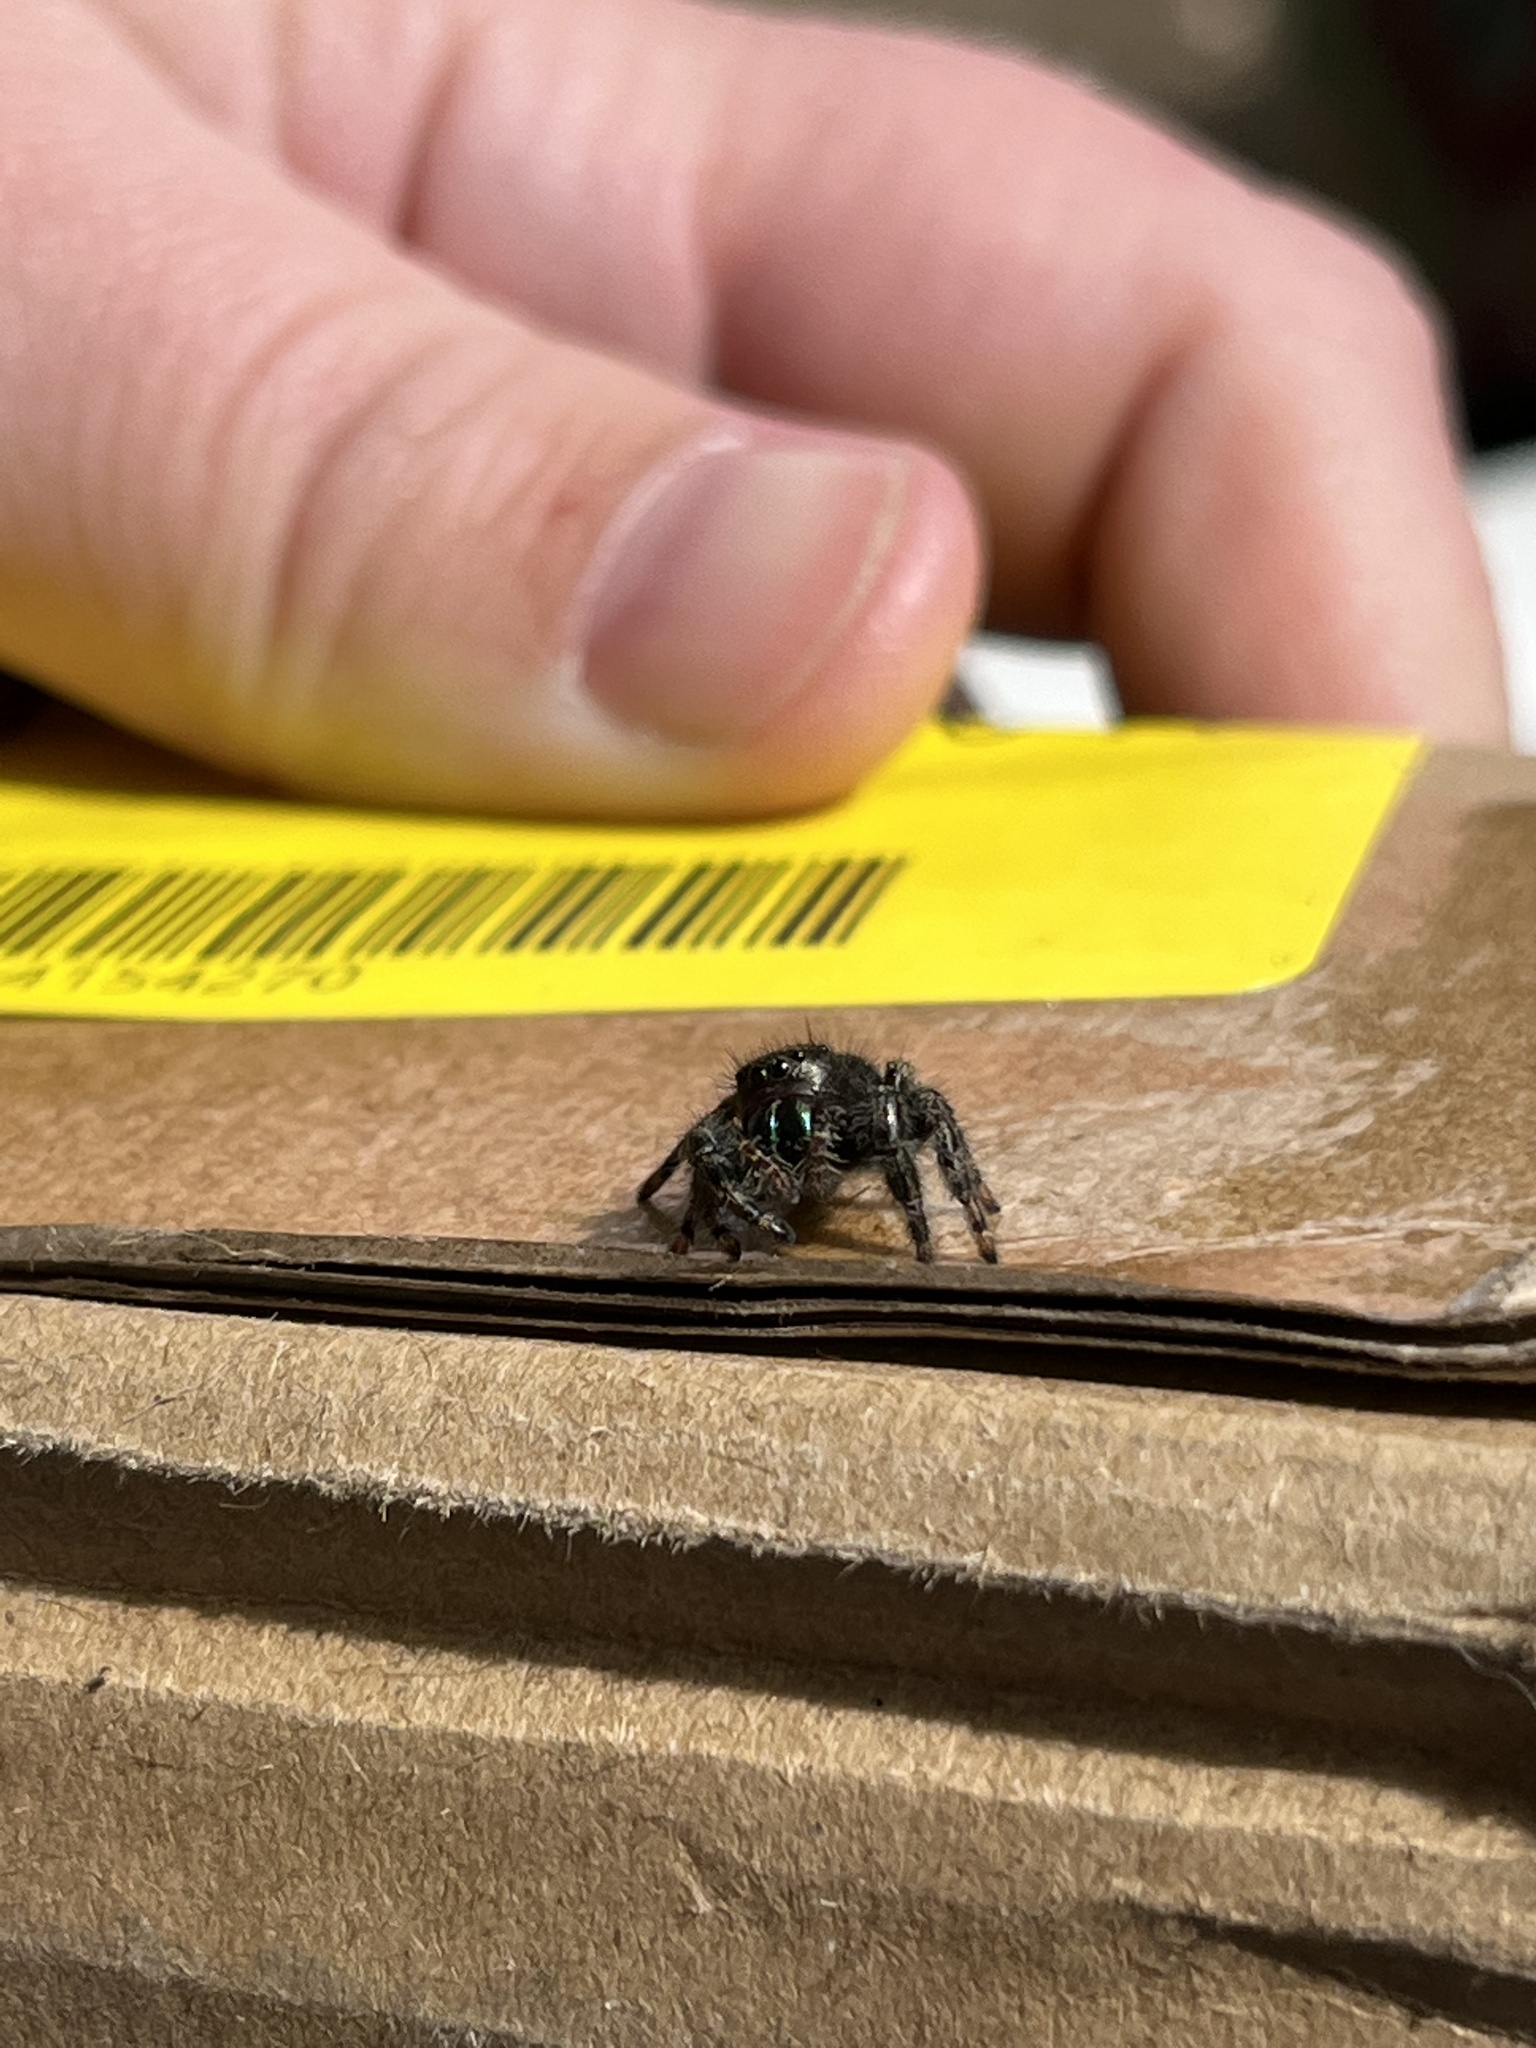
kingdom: Animalia
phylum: Arthropoda
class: Arachnida
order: Araneae
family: Salticidae
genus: Phidippus
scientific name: Phidippus audax
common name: Bold jumper
